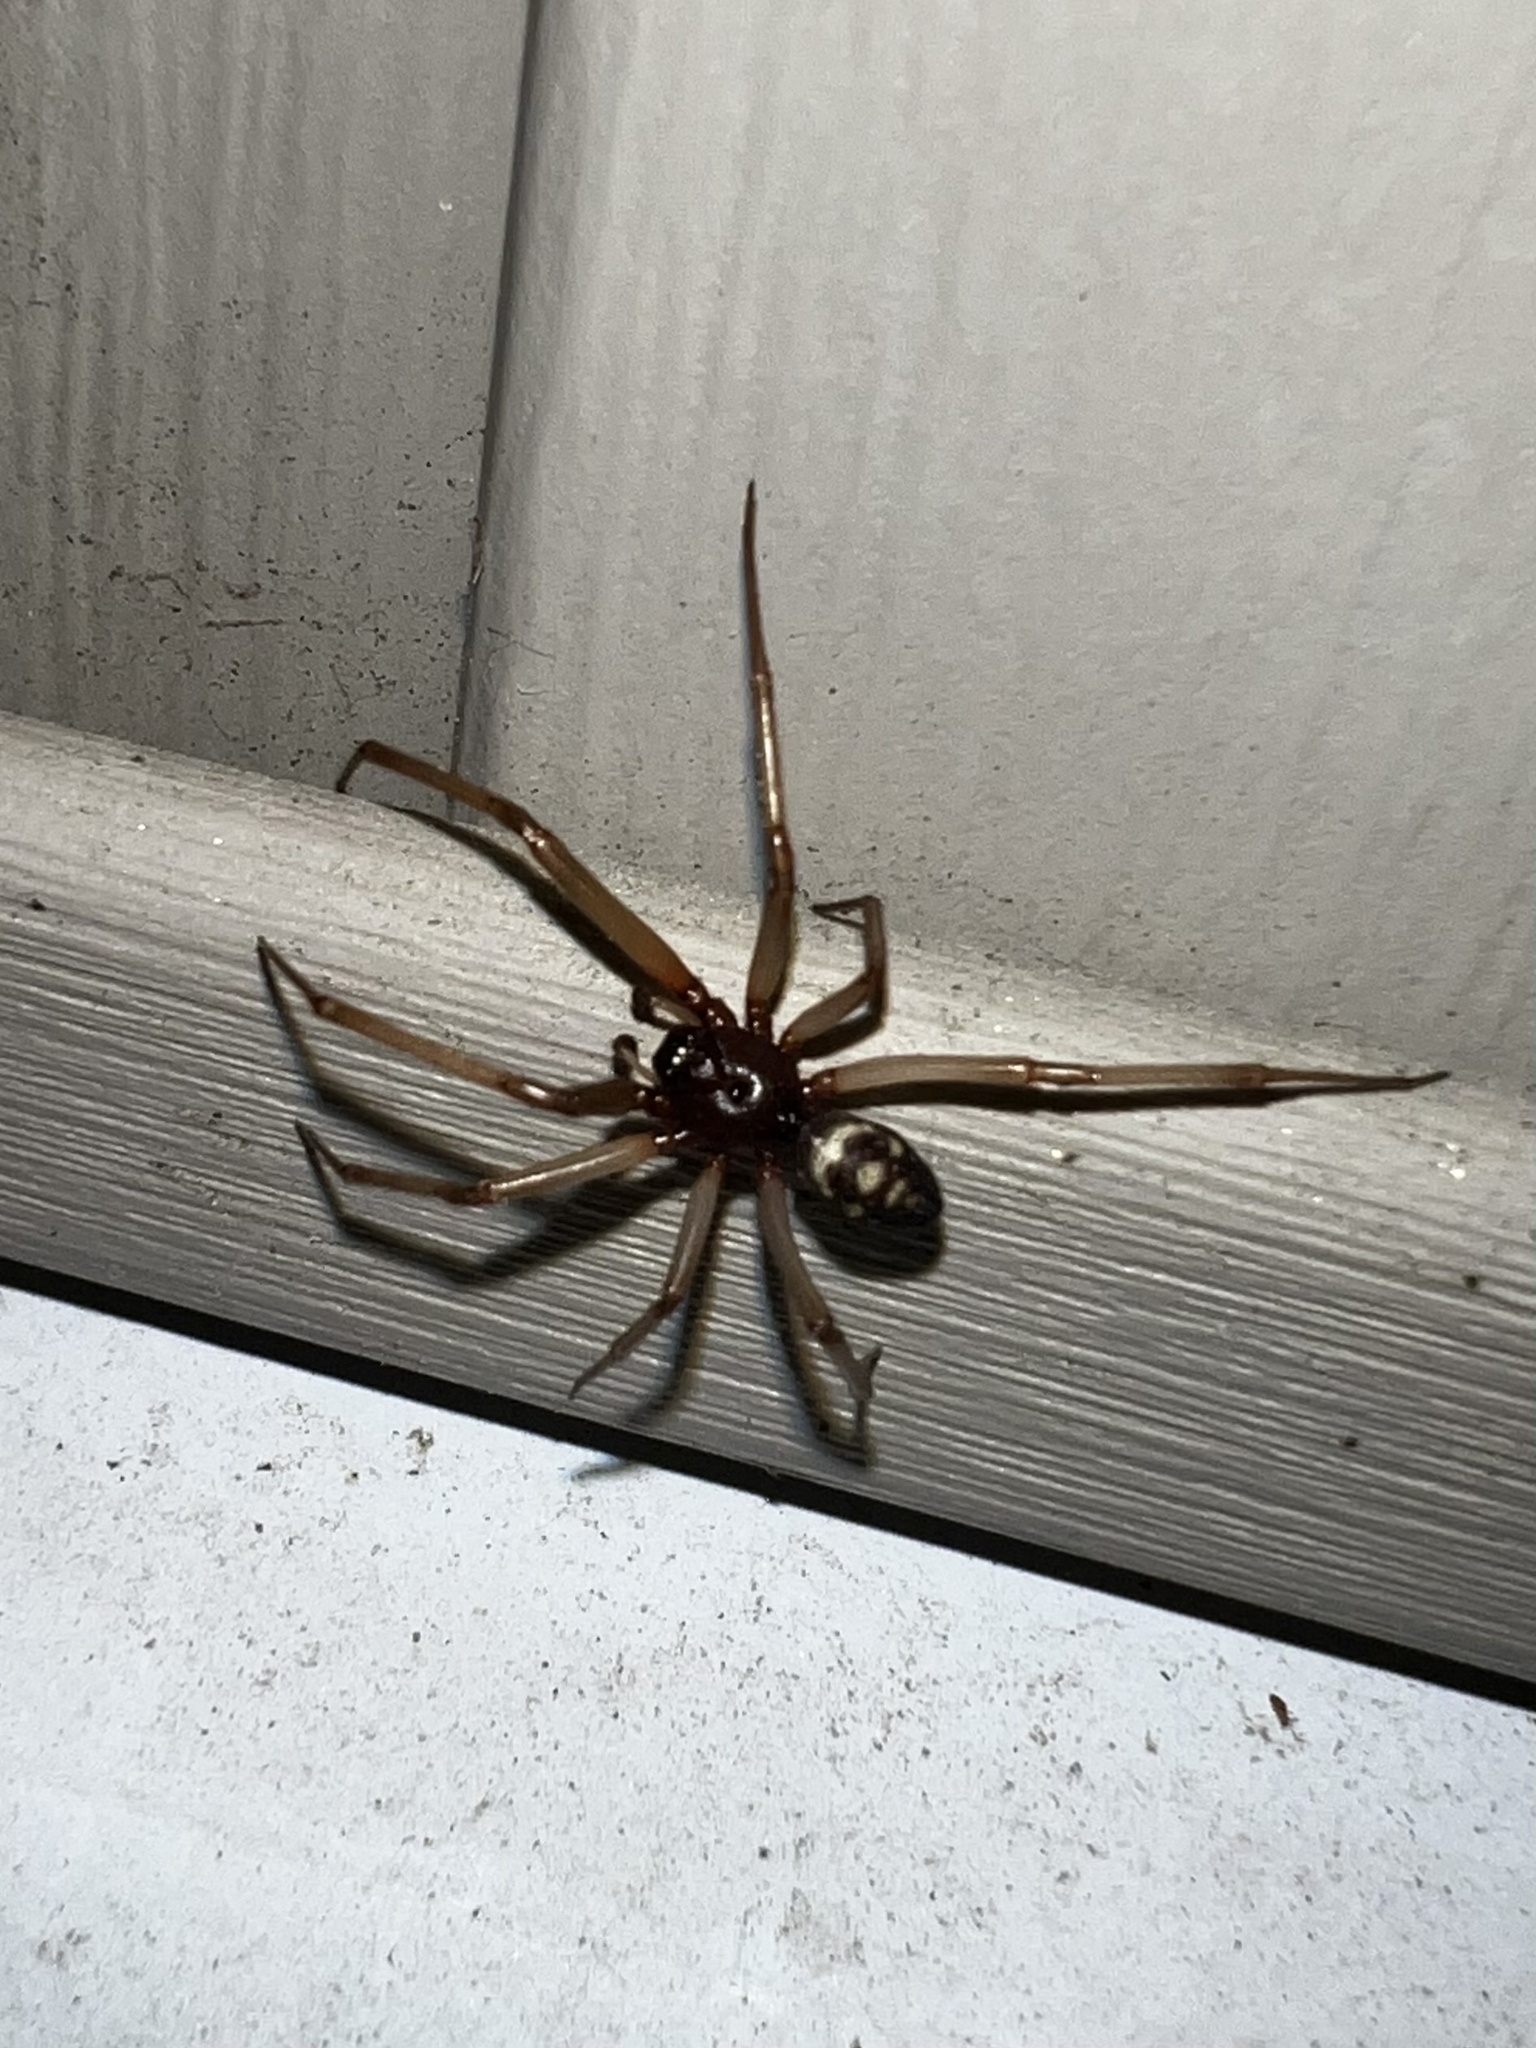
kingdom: Animalia
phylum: Arthropoda
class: Arachnida
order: Araneae
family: Theridiidae
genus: Steatoda
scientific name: Steatoda grossa
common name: False black widow
